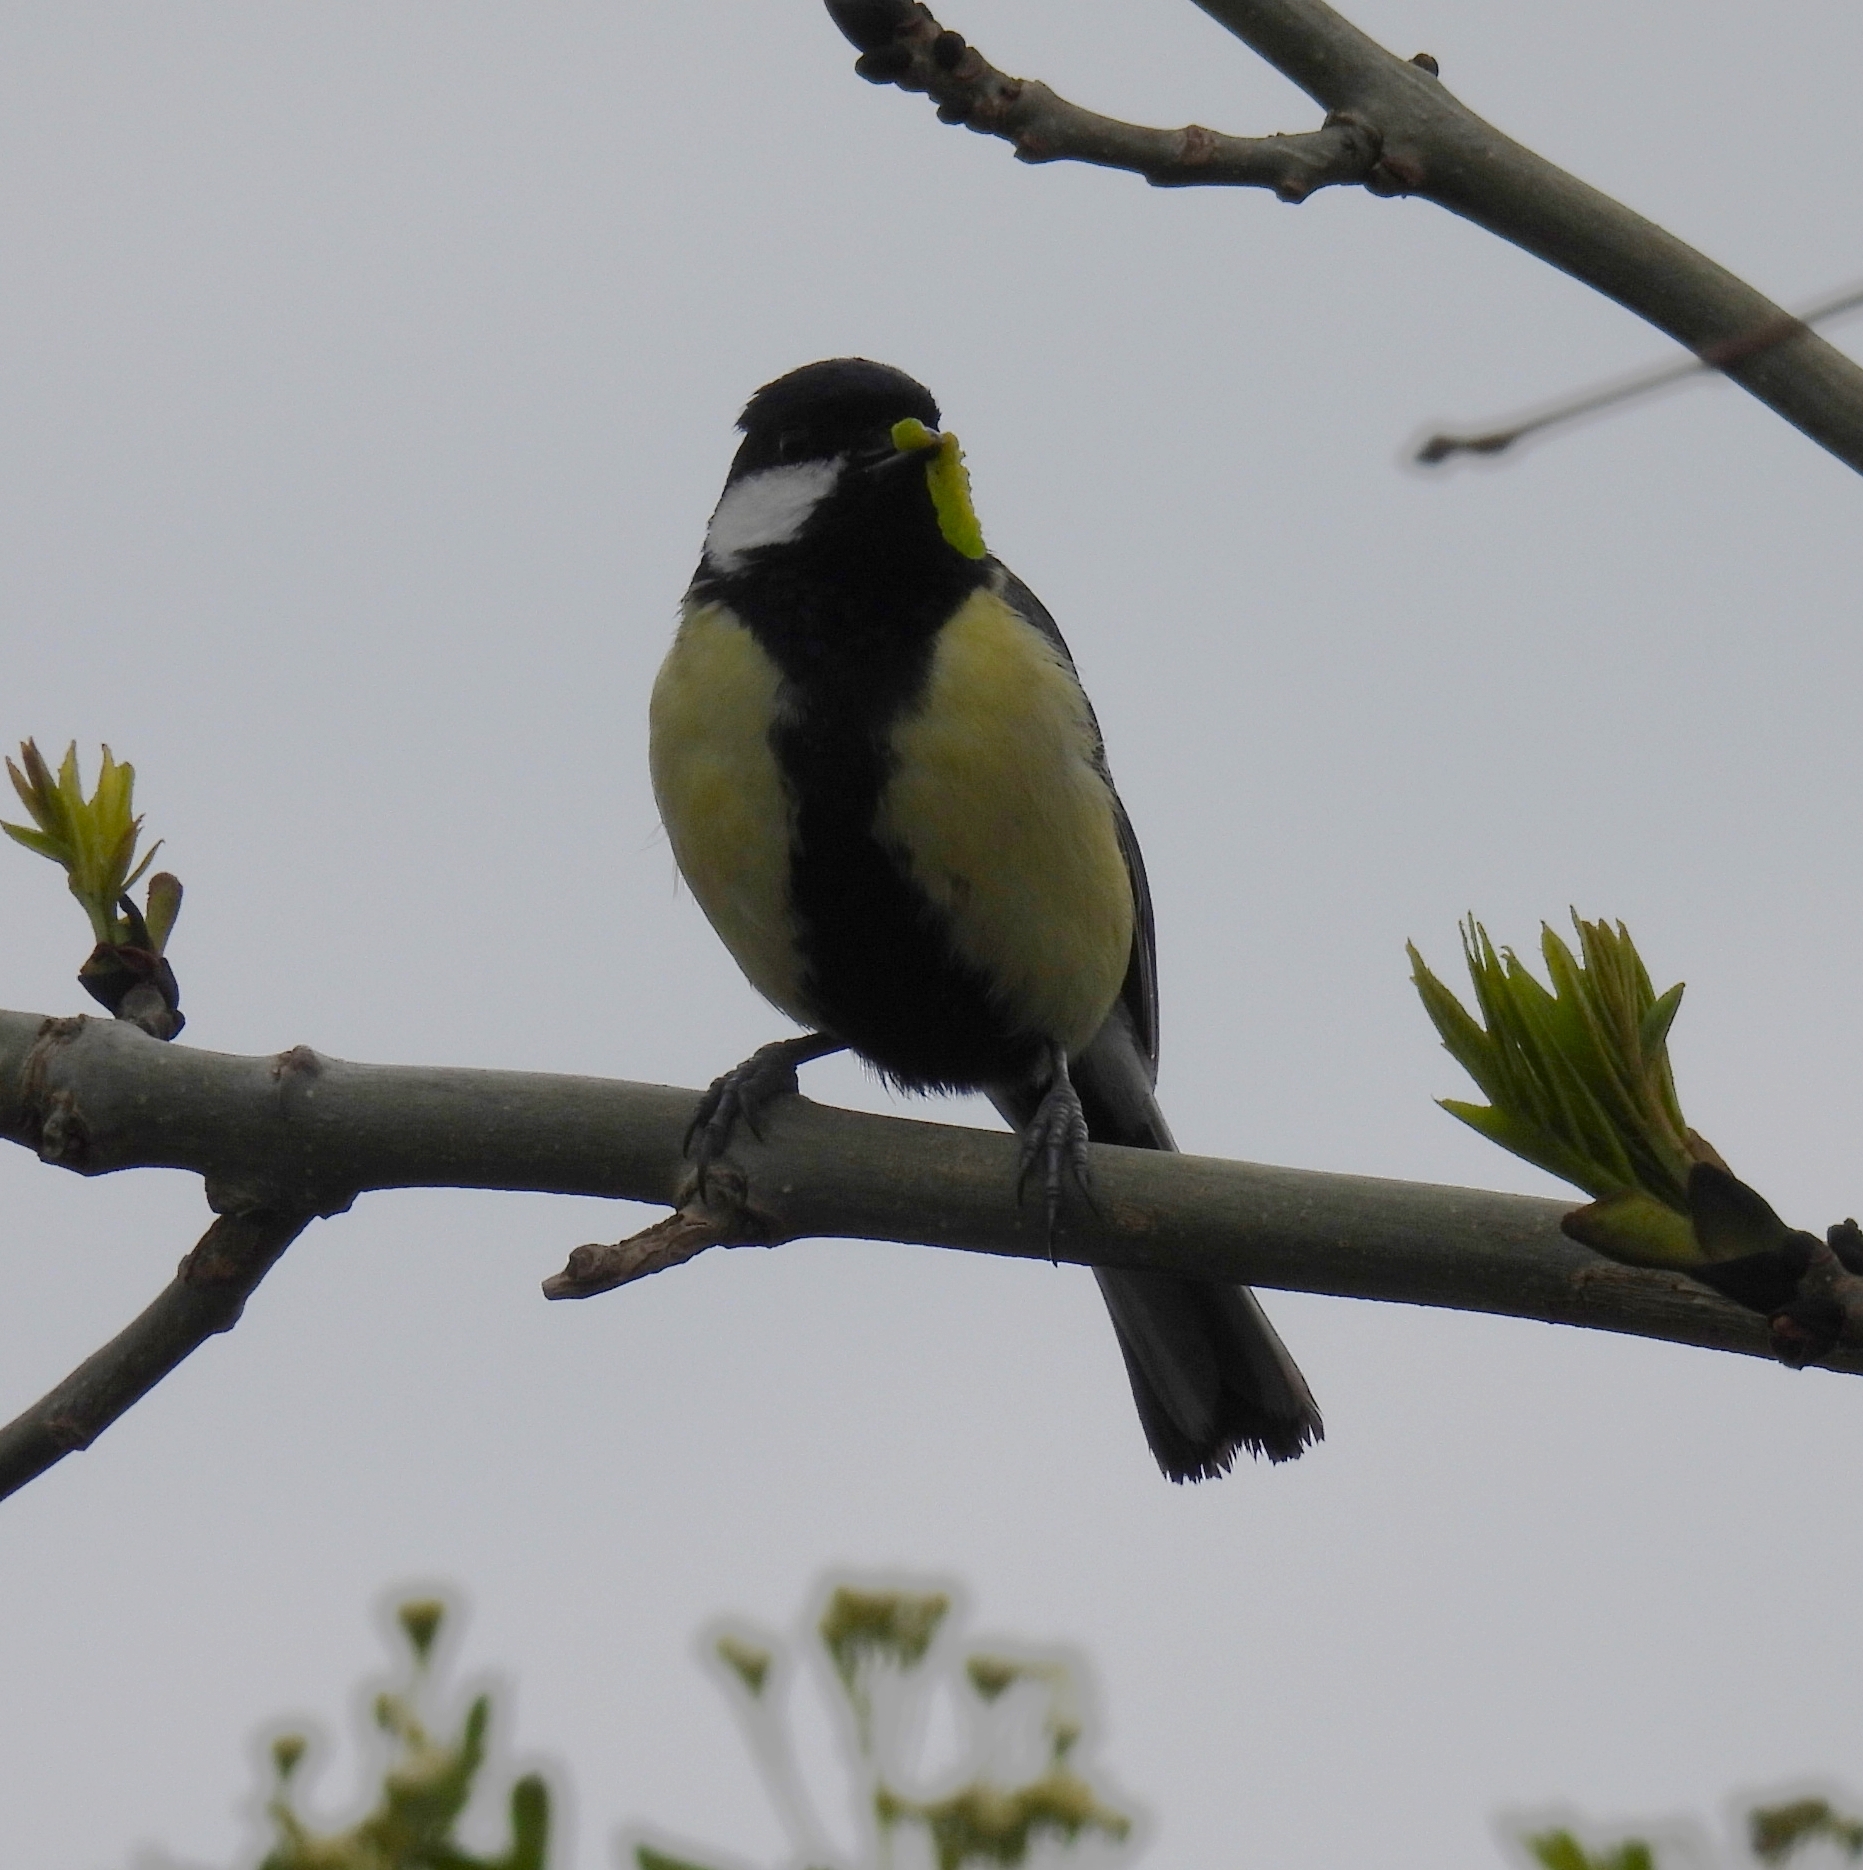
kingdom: Animalia
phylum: Chordata
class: Aves
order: Passeriformes
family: Paridae
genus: Parus
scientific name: Parus major
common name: Great tit
